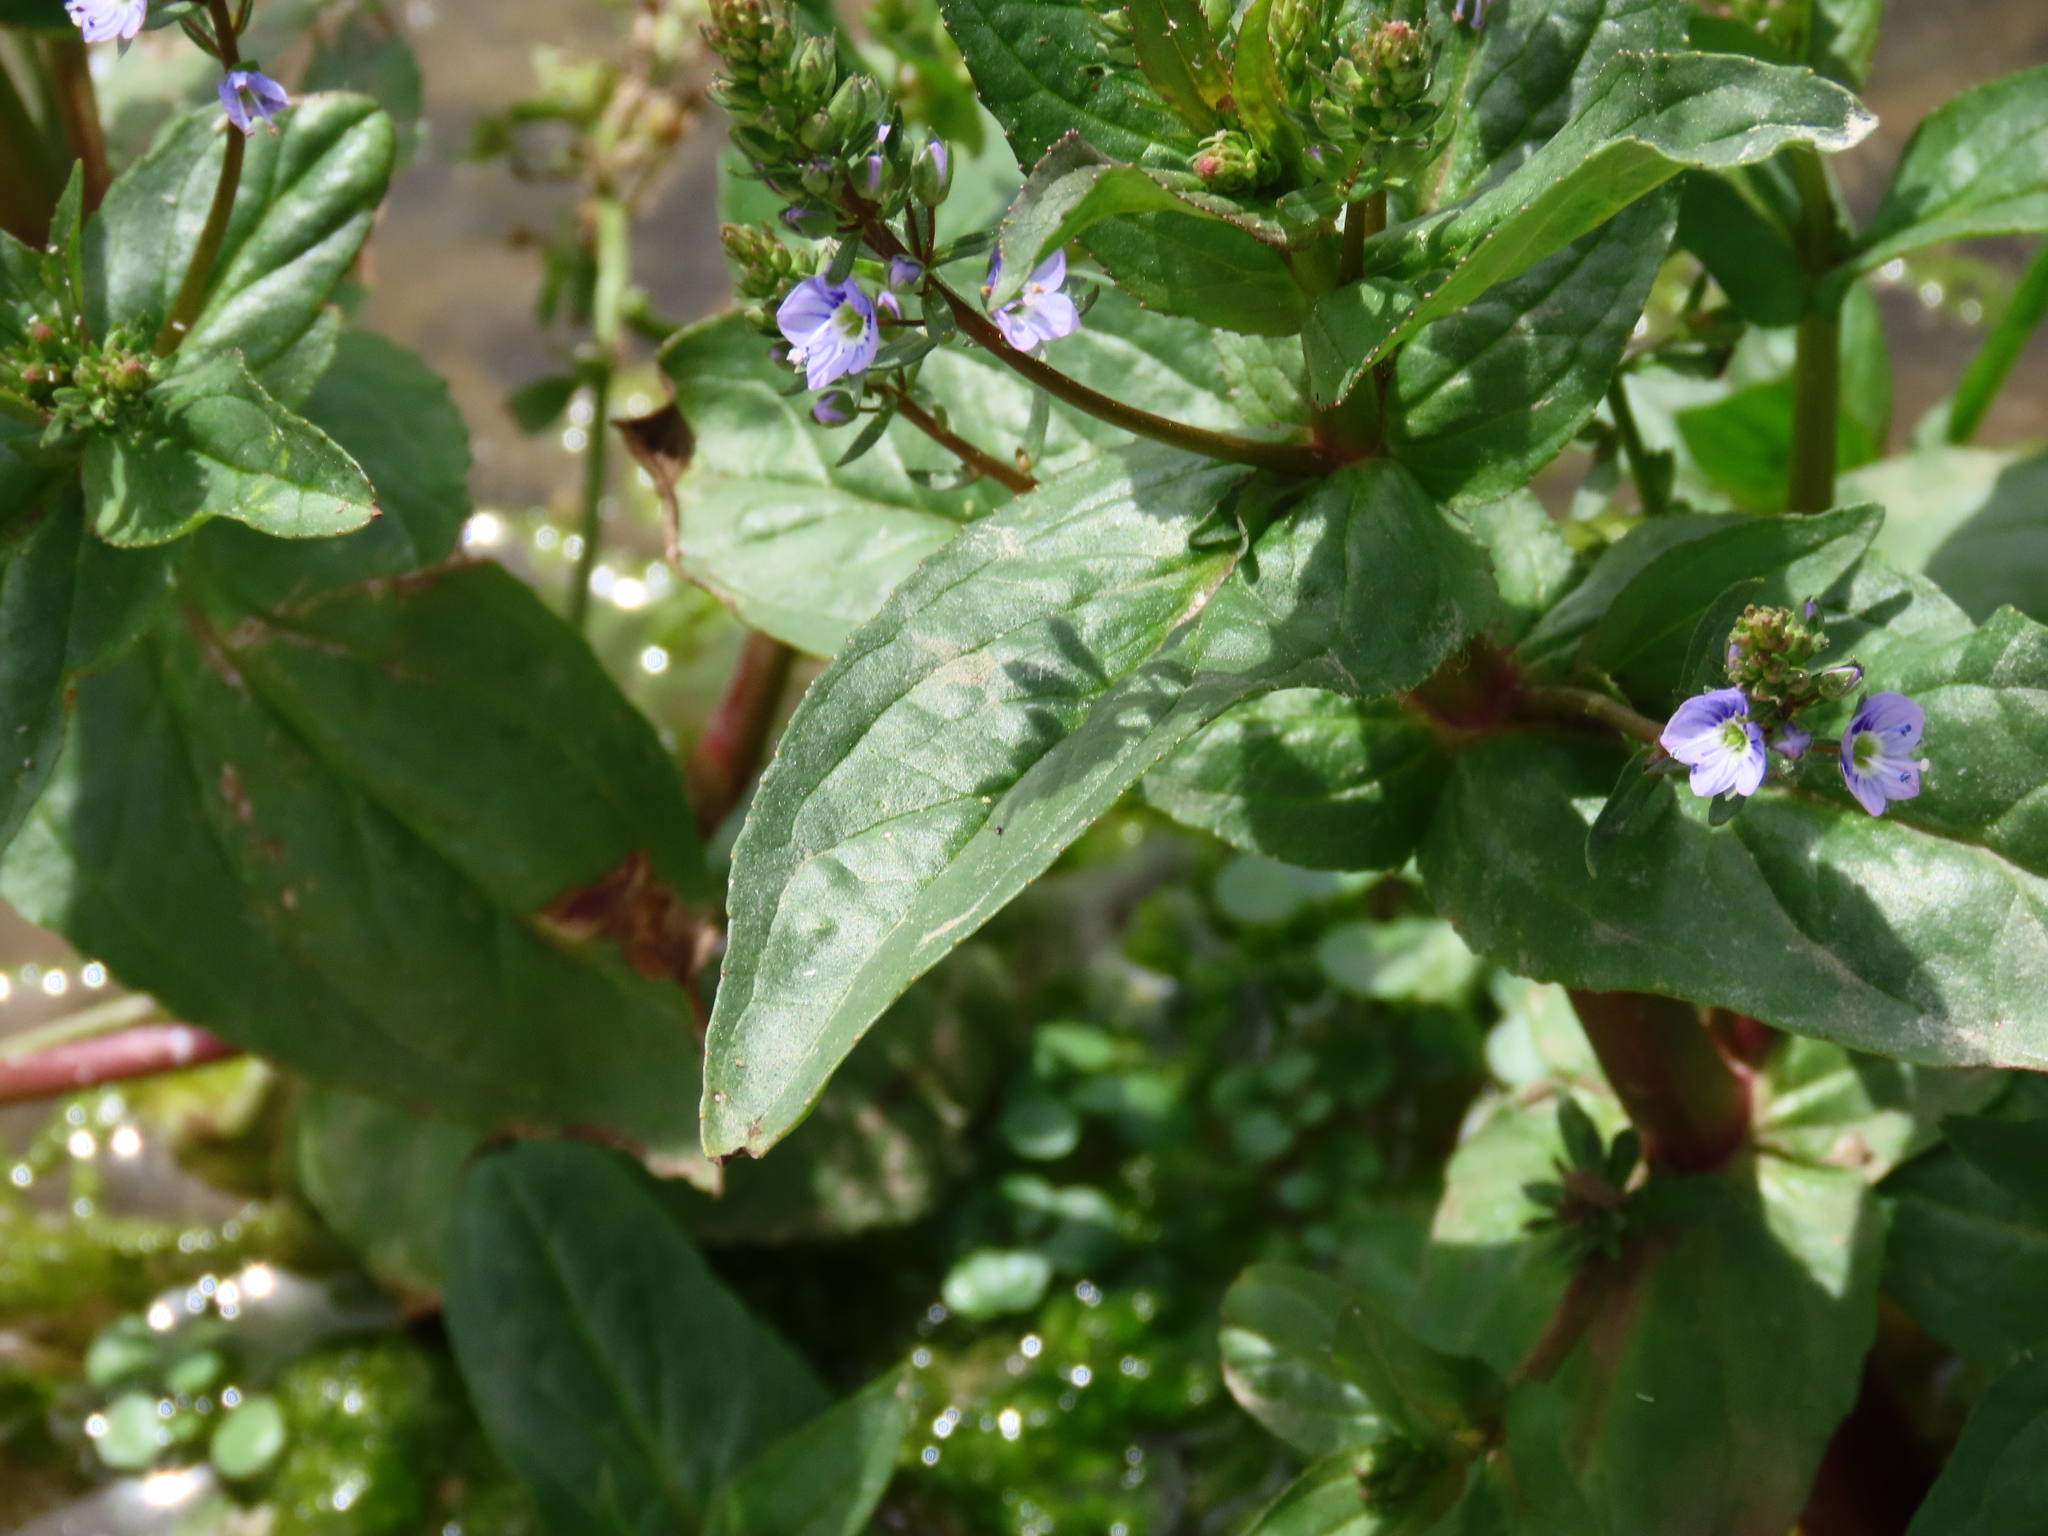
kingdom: Plantae
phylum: Tracheophyta
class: Magnoliopsida
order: Lamiales
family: Plantaginaceae
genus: Veronica
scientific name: Veronica anagallis-aquatica
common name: Water speedwell
